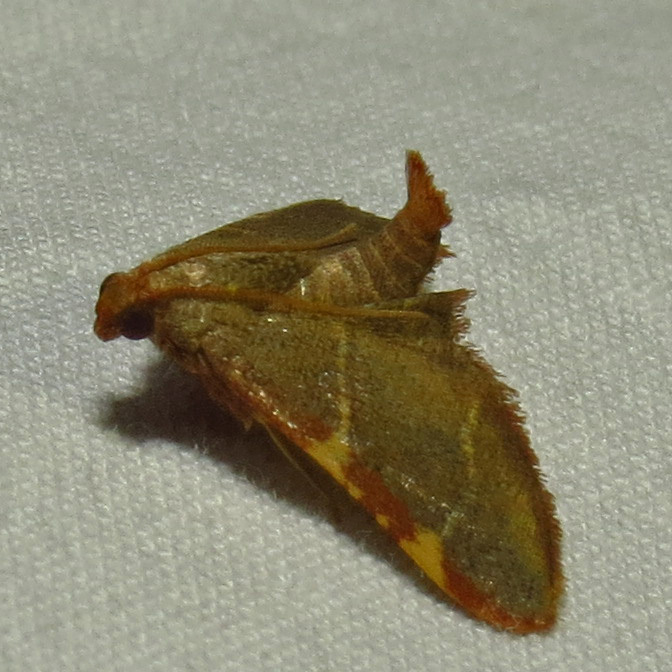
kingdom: Animalia
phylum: Arthropoda
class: Insecta
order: Lepidoptera
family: Pyralidae
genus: Hypsopygia
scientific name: Hypsopygia binodulalis
